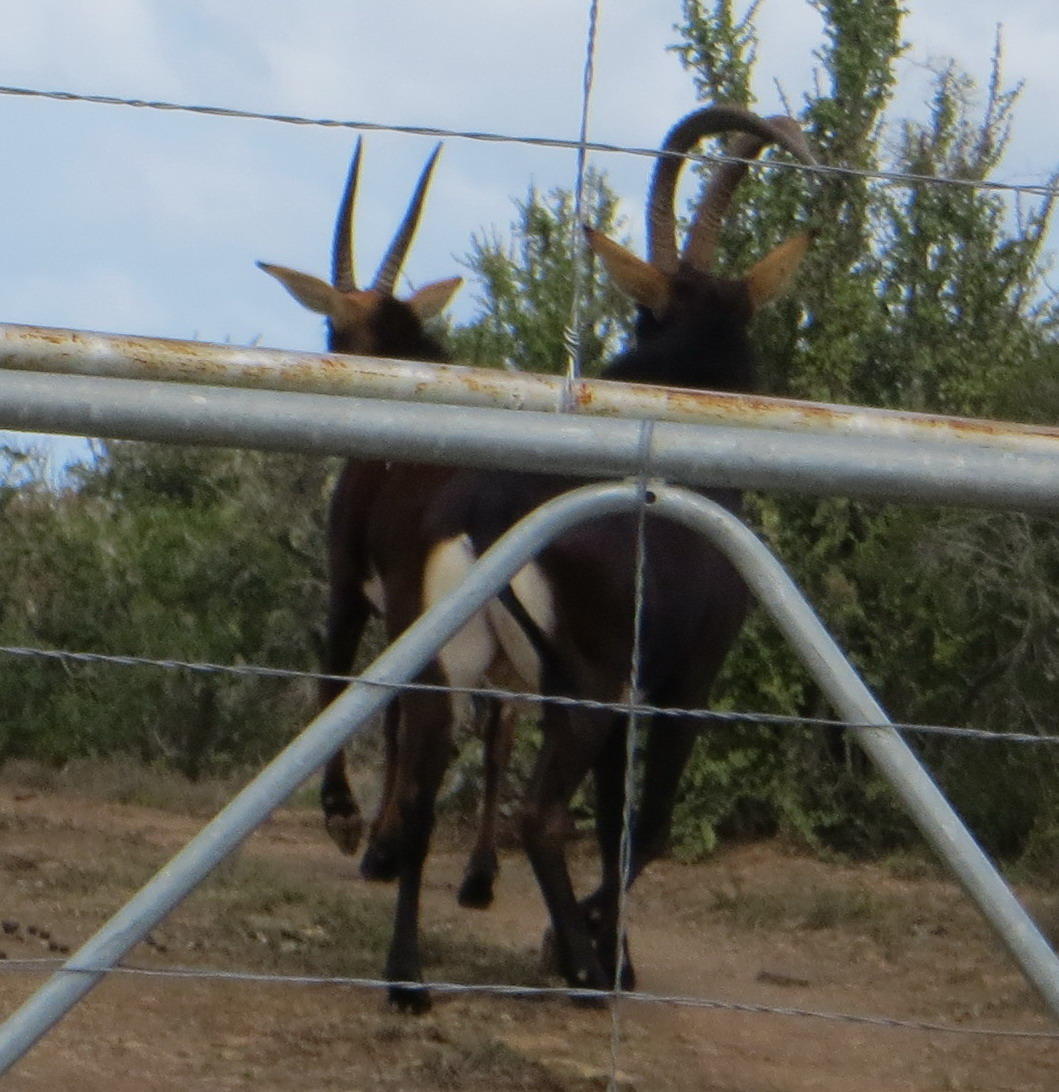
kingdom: Animalia
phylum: Chordata
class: Mammalia
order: Artiodactyla
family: Bovidae
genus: Hippotragus
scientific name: Hippotragus niger
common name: Sable antelope
